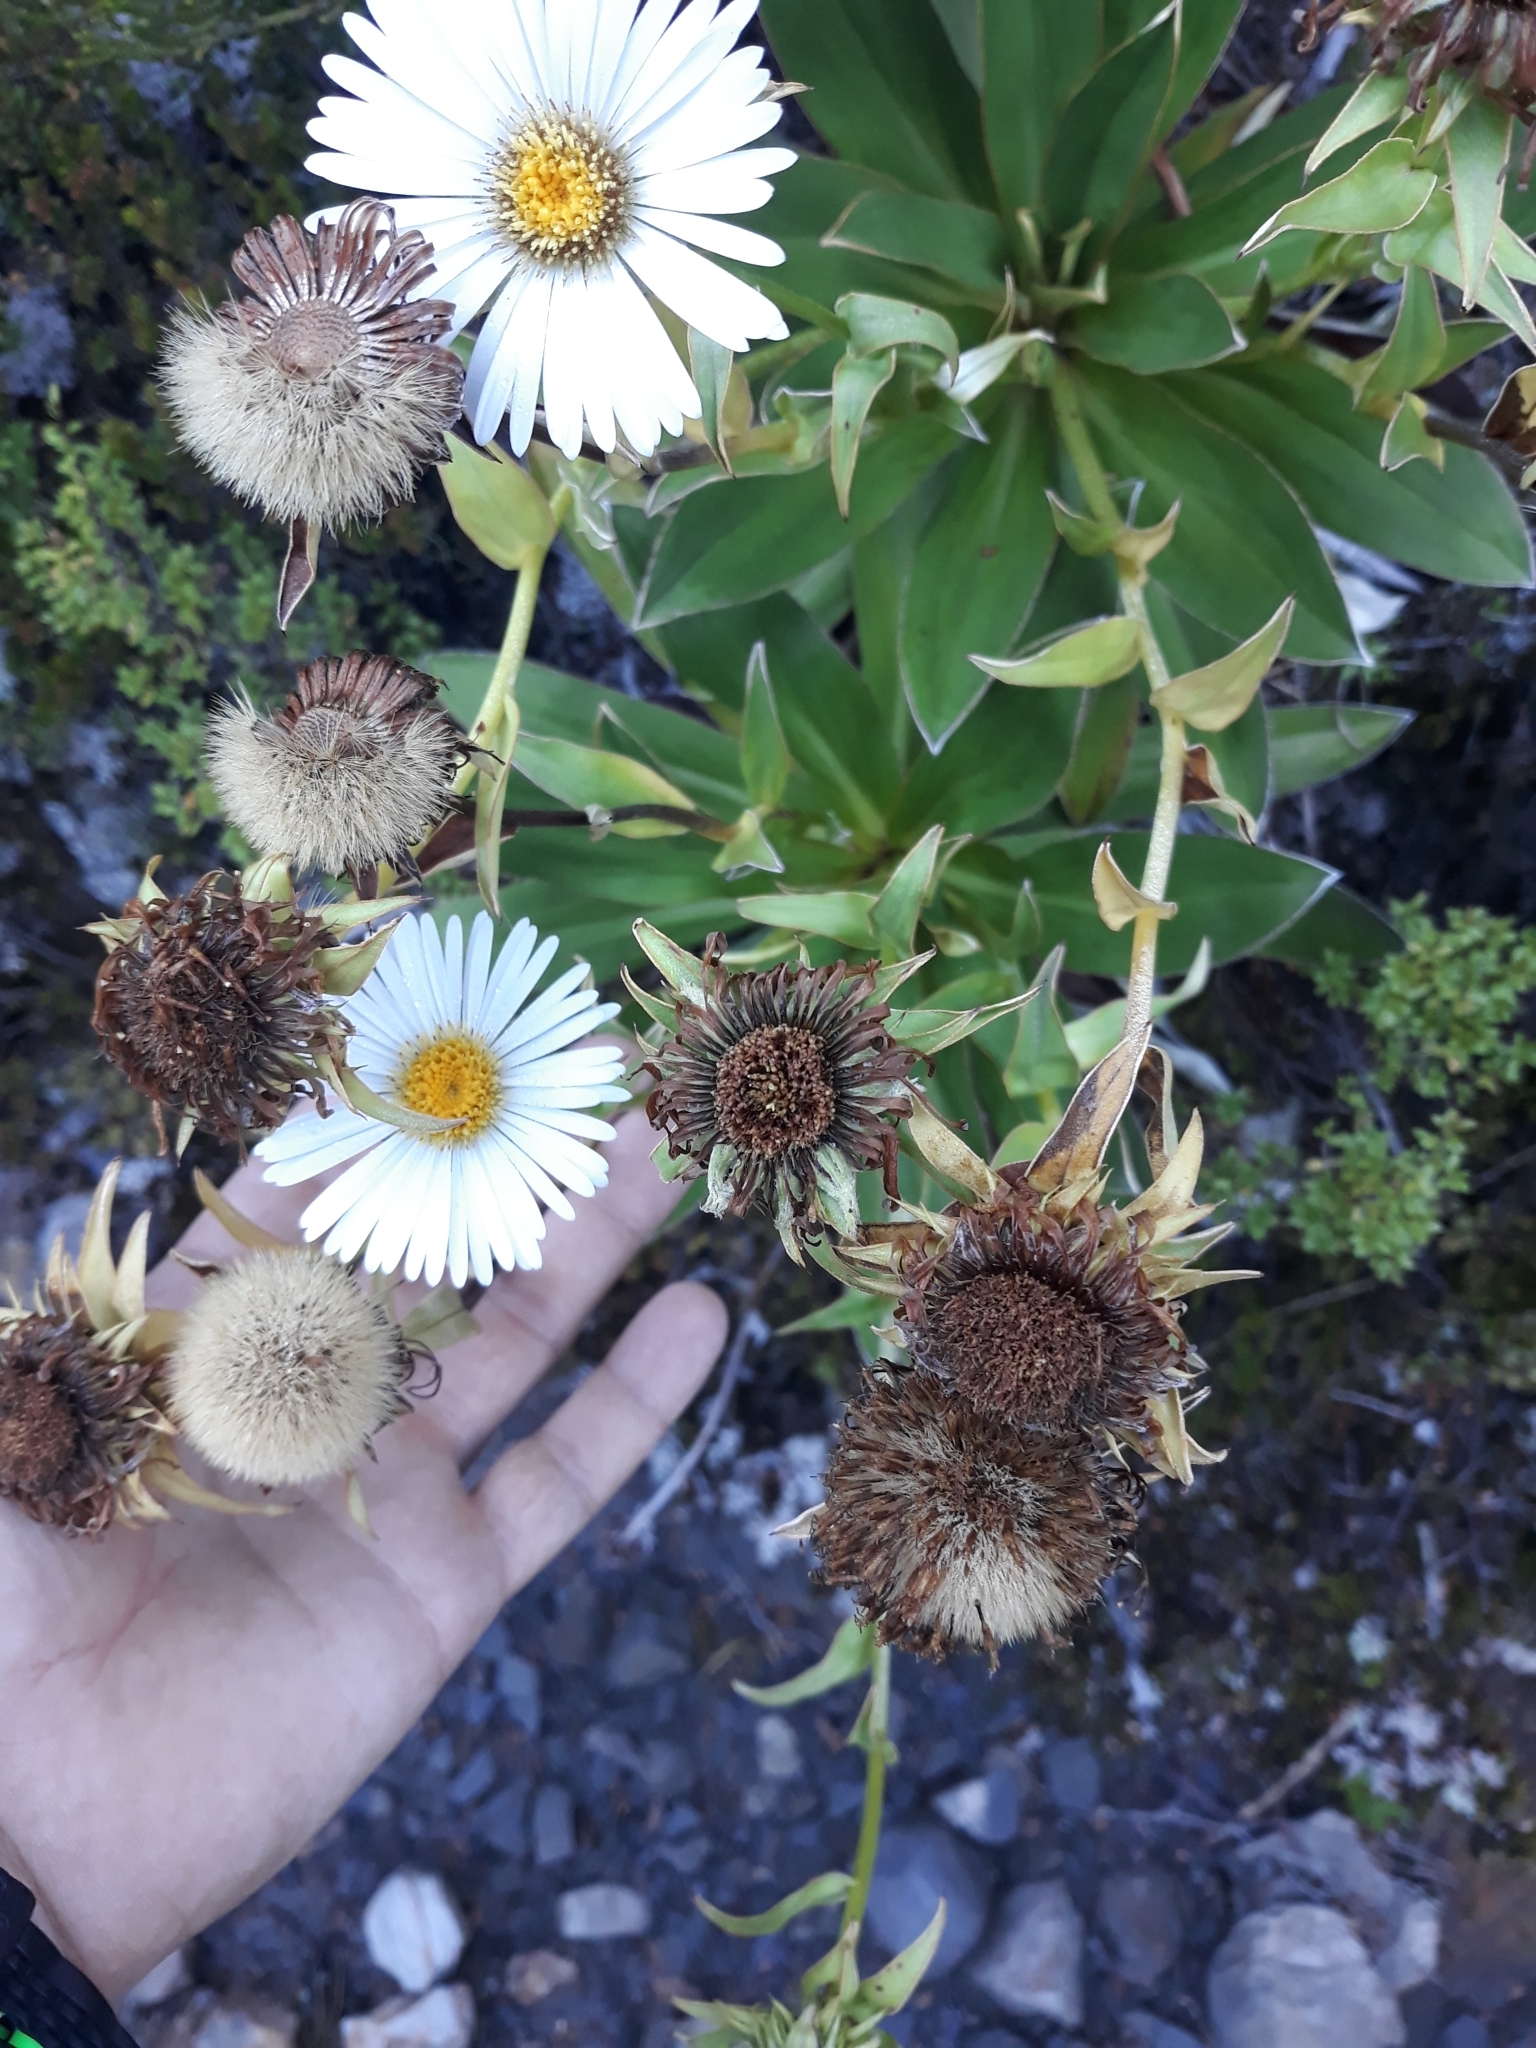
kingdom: Plantae
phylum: Tracheophyta
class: Magnoliopsida
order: Asterales
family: Asteraceae
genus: Celmisia
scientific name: Celmisia dallii
